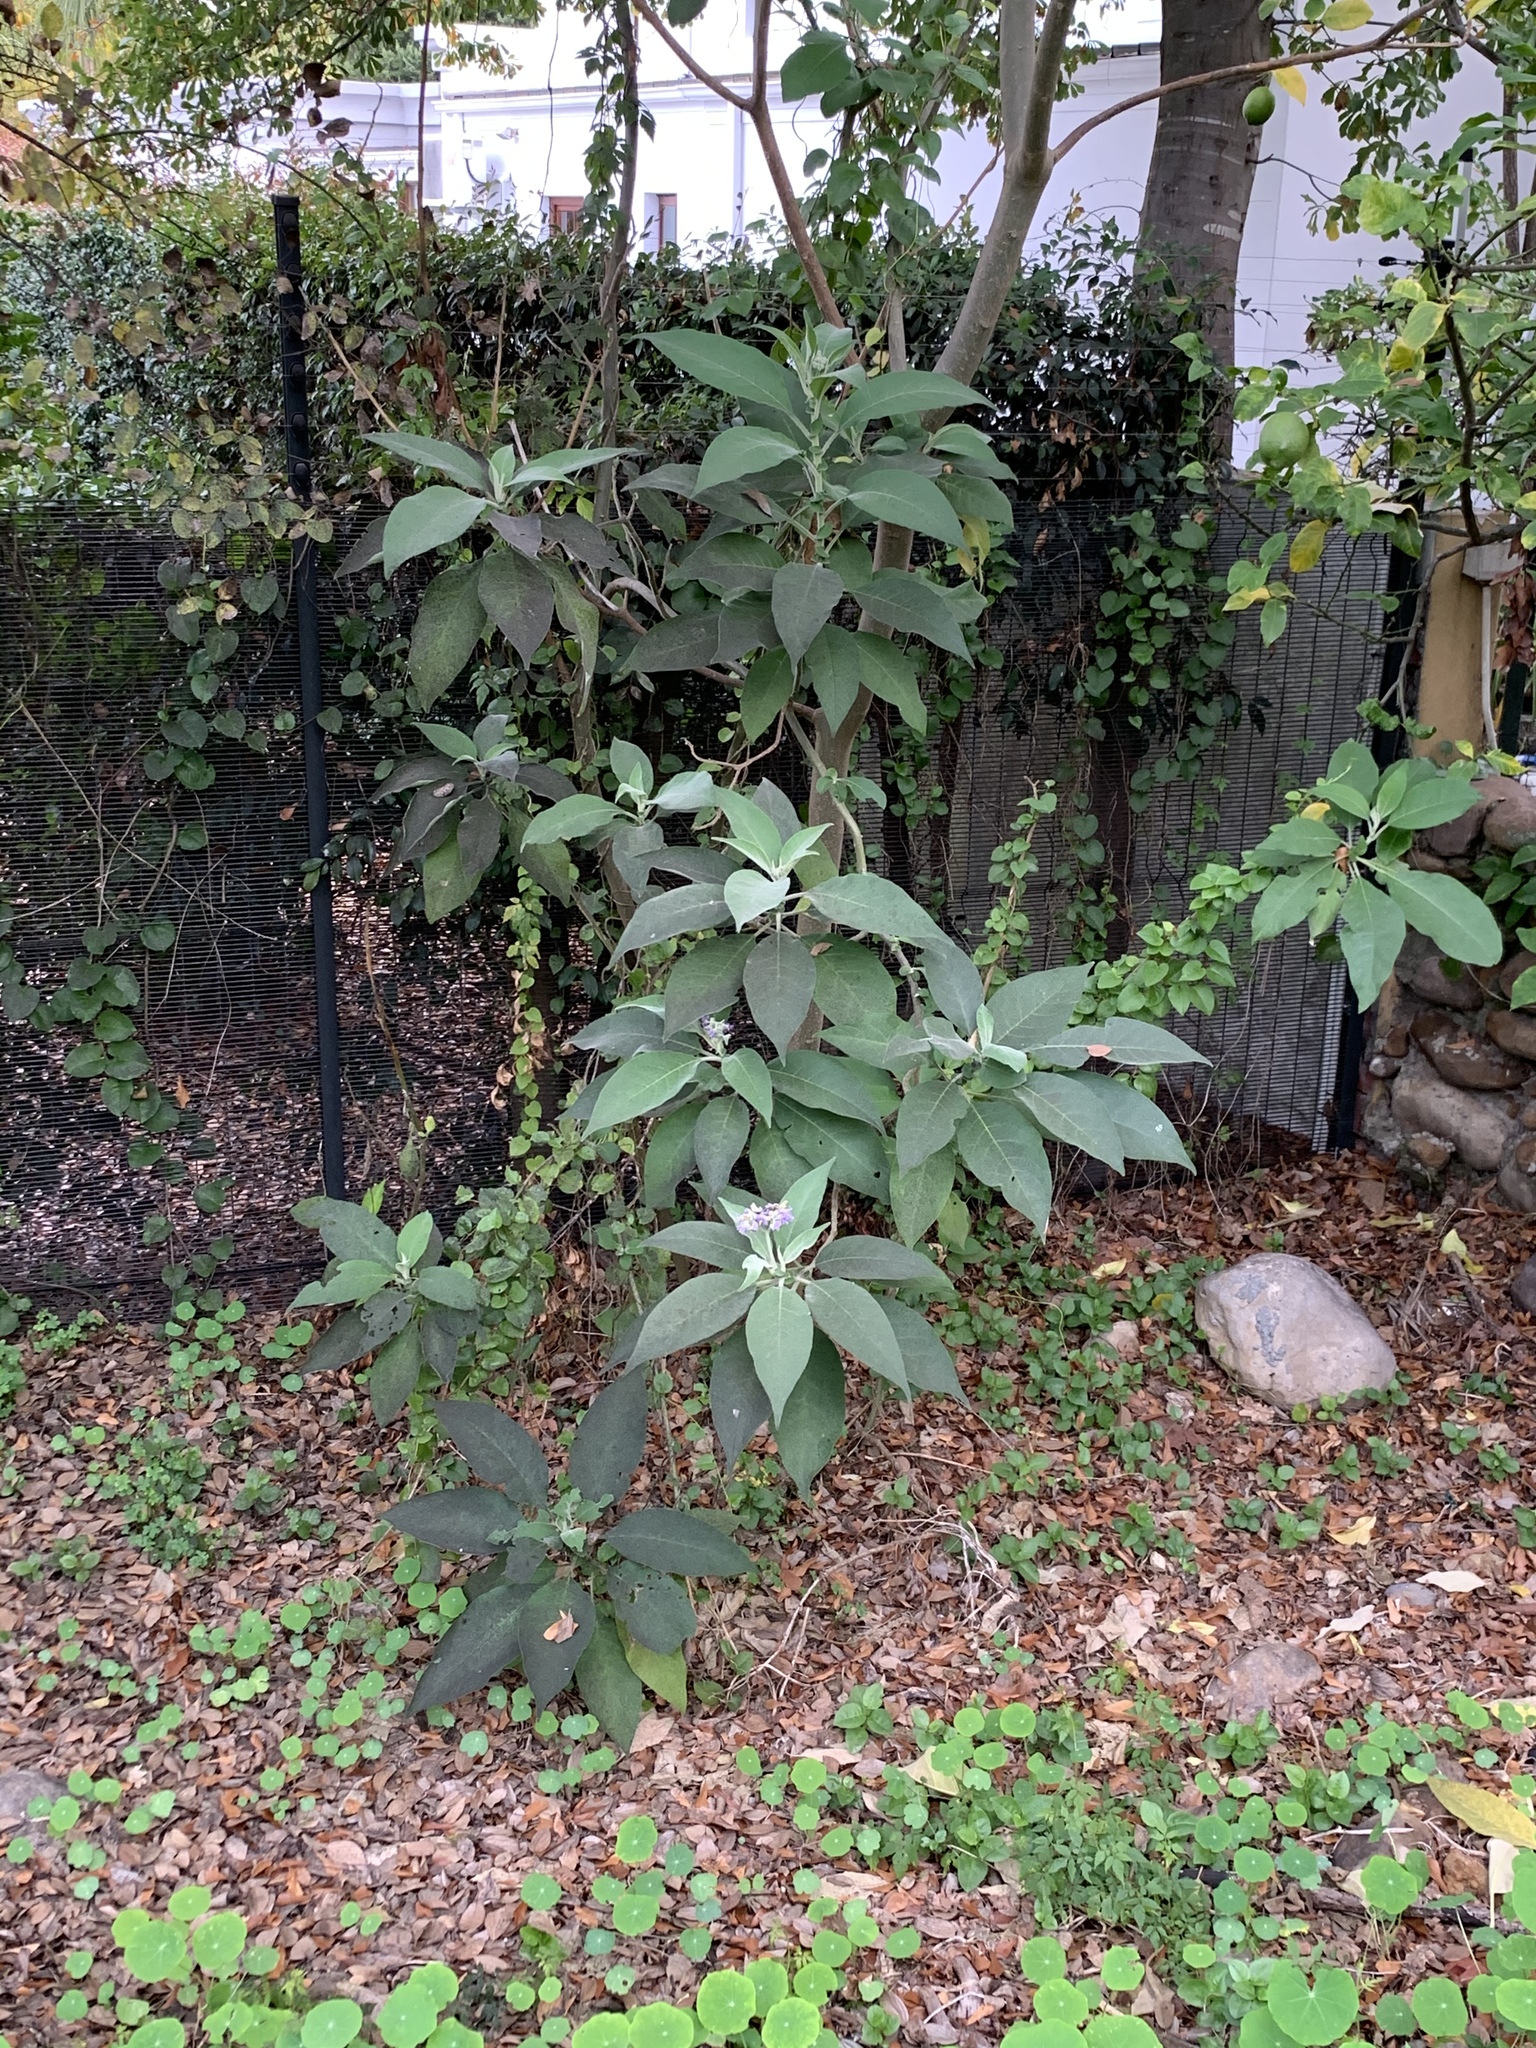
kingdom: Plantae
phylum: Tracheophyta
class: Magnoliopsida
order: Solanales
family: Solanaceae
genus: Solanum
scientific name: Solanum mauritianum
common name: Earleaf nightshade
